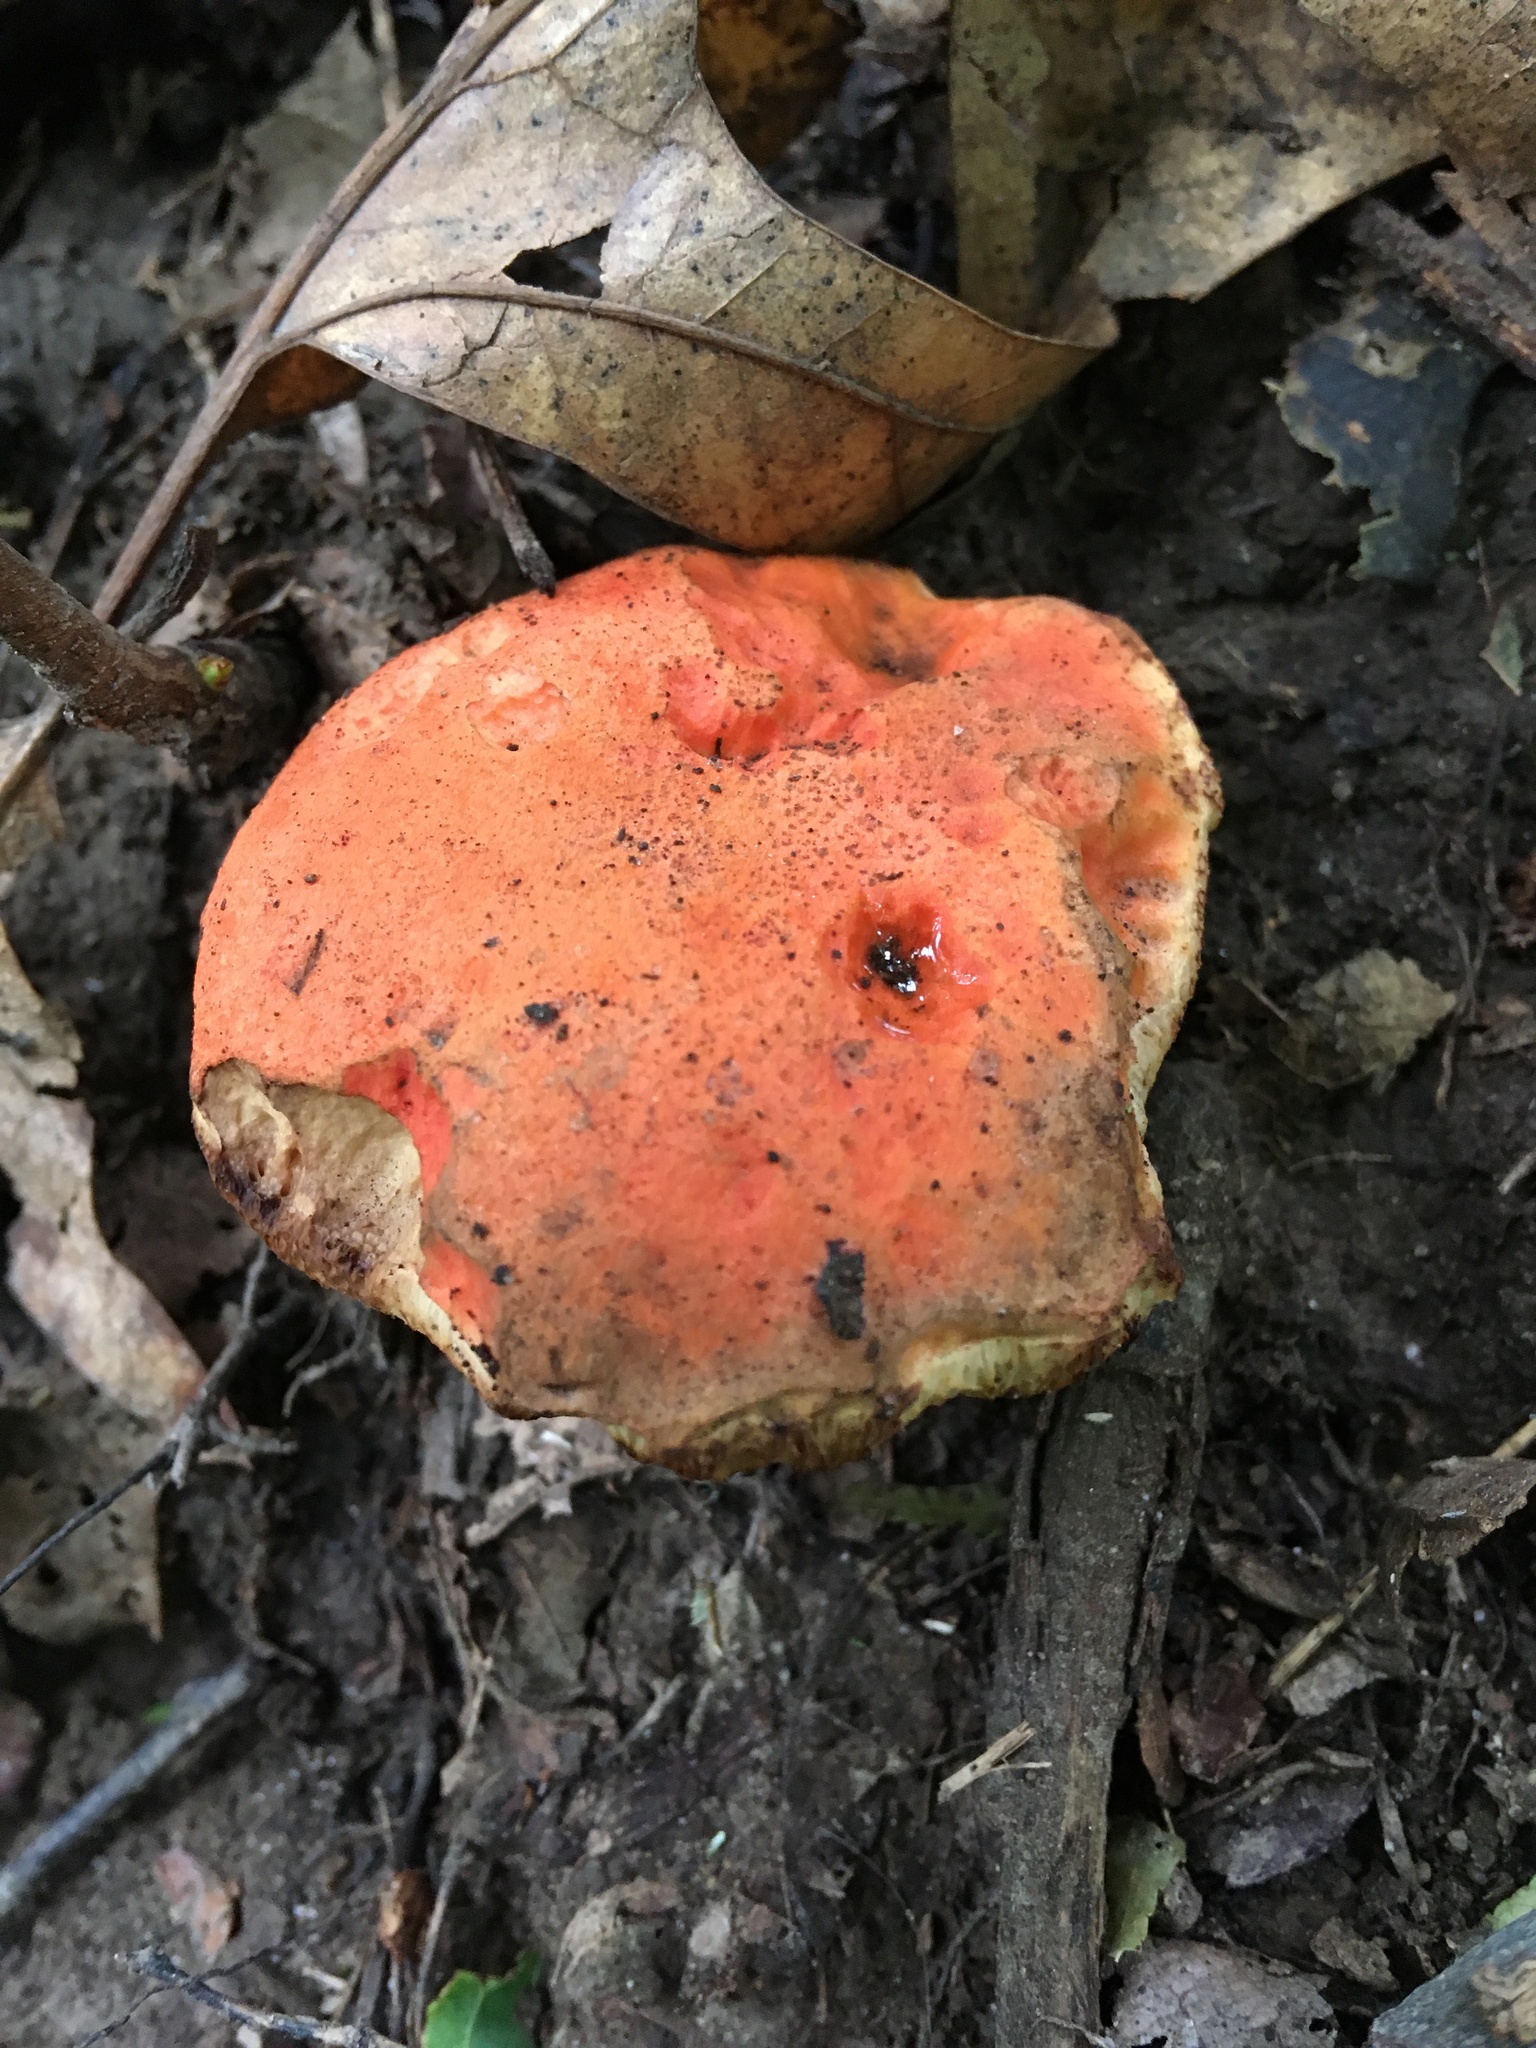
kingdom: Fungi
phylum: Basidiomycota
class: Agaricomycetes
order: Boletales
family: Boletaceae
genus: Tylopilus
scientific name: Tylopilus balloui
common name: Burnt-orange bolete
